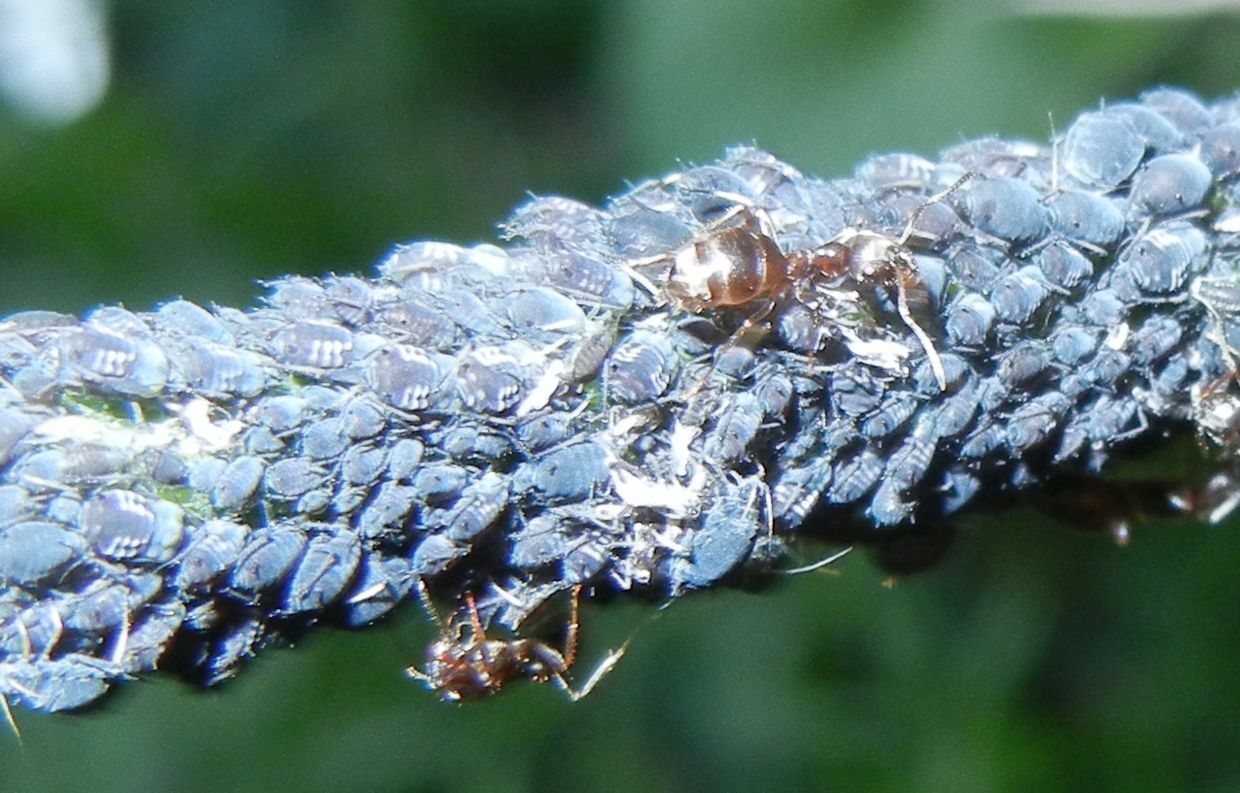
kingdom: Animalia
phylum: Arthropoda
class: Insecta
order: Hemiptera
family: Aphididae
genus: Aphis
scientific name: Aphis fabae
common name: Bean aphid
